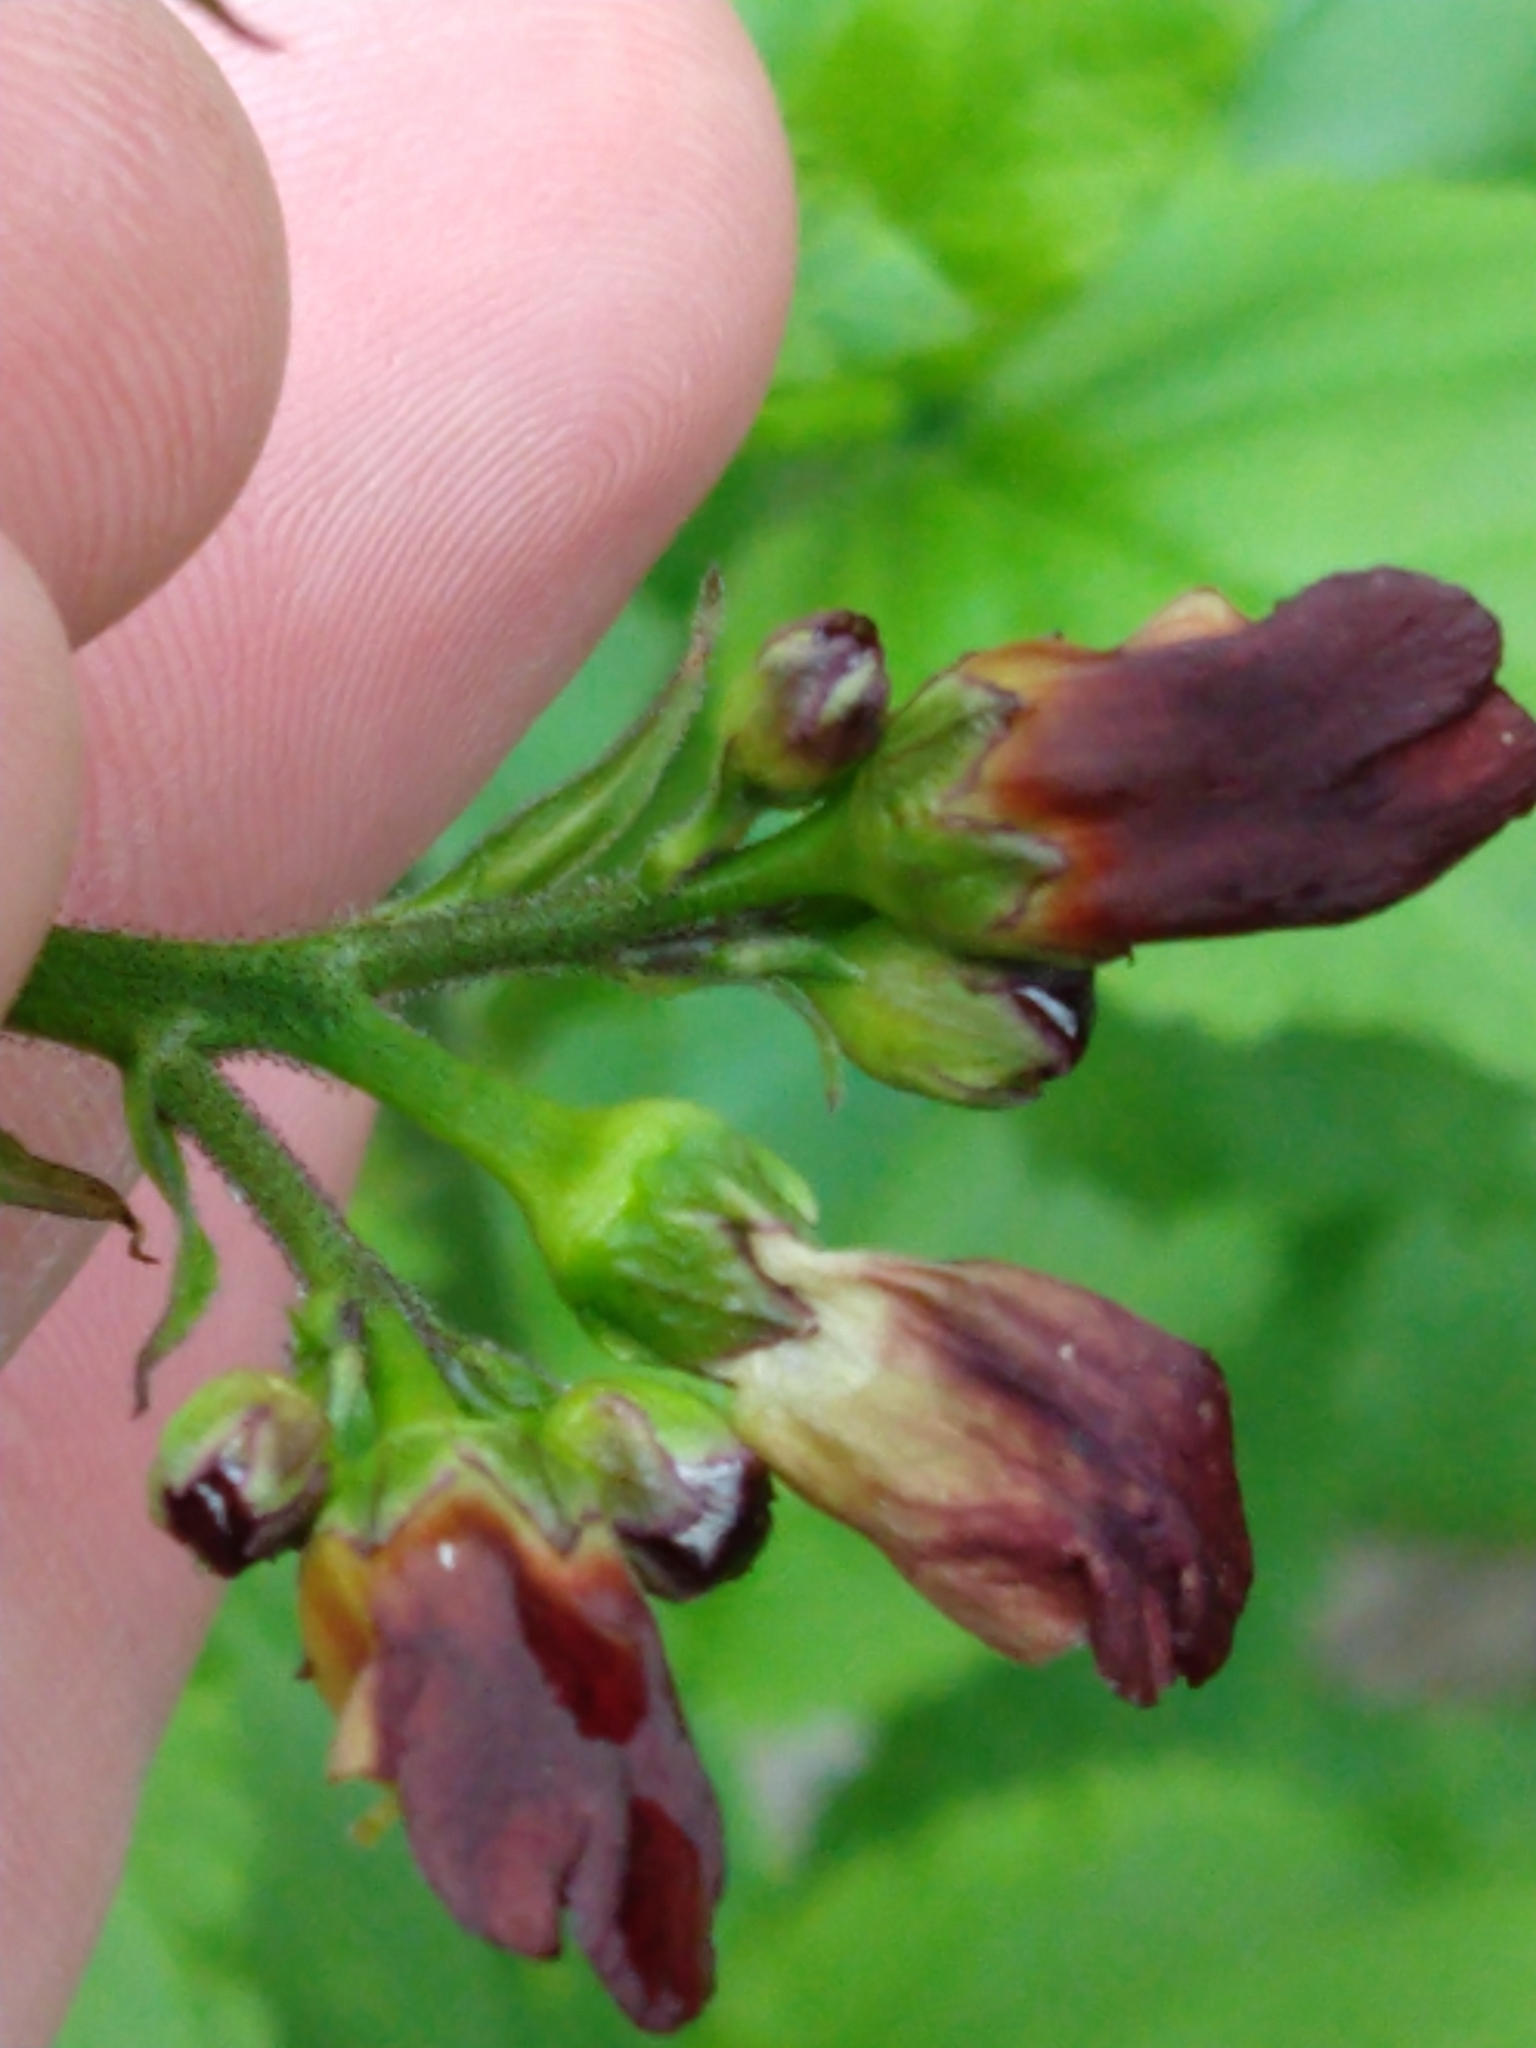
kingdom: Plantae
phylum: Tracheophyta
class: Magnoliopsida
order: Lamiales
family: Scrophulariaceae
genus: Scrophularia
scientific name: Scrophularia californica
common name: California figwort
